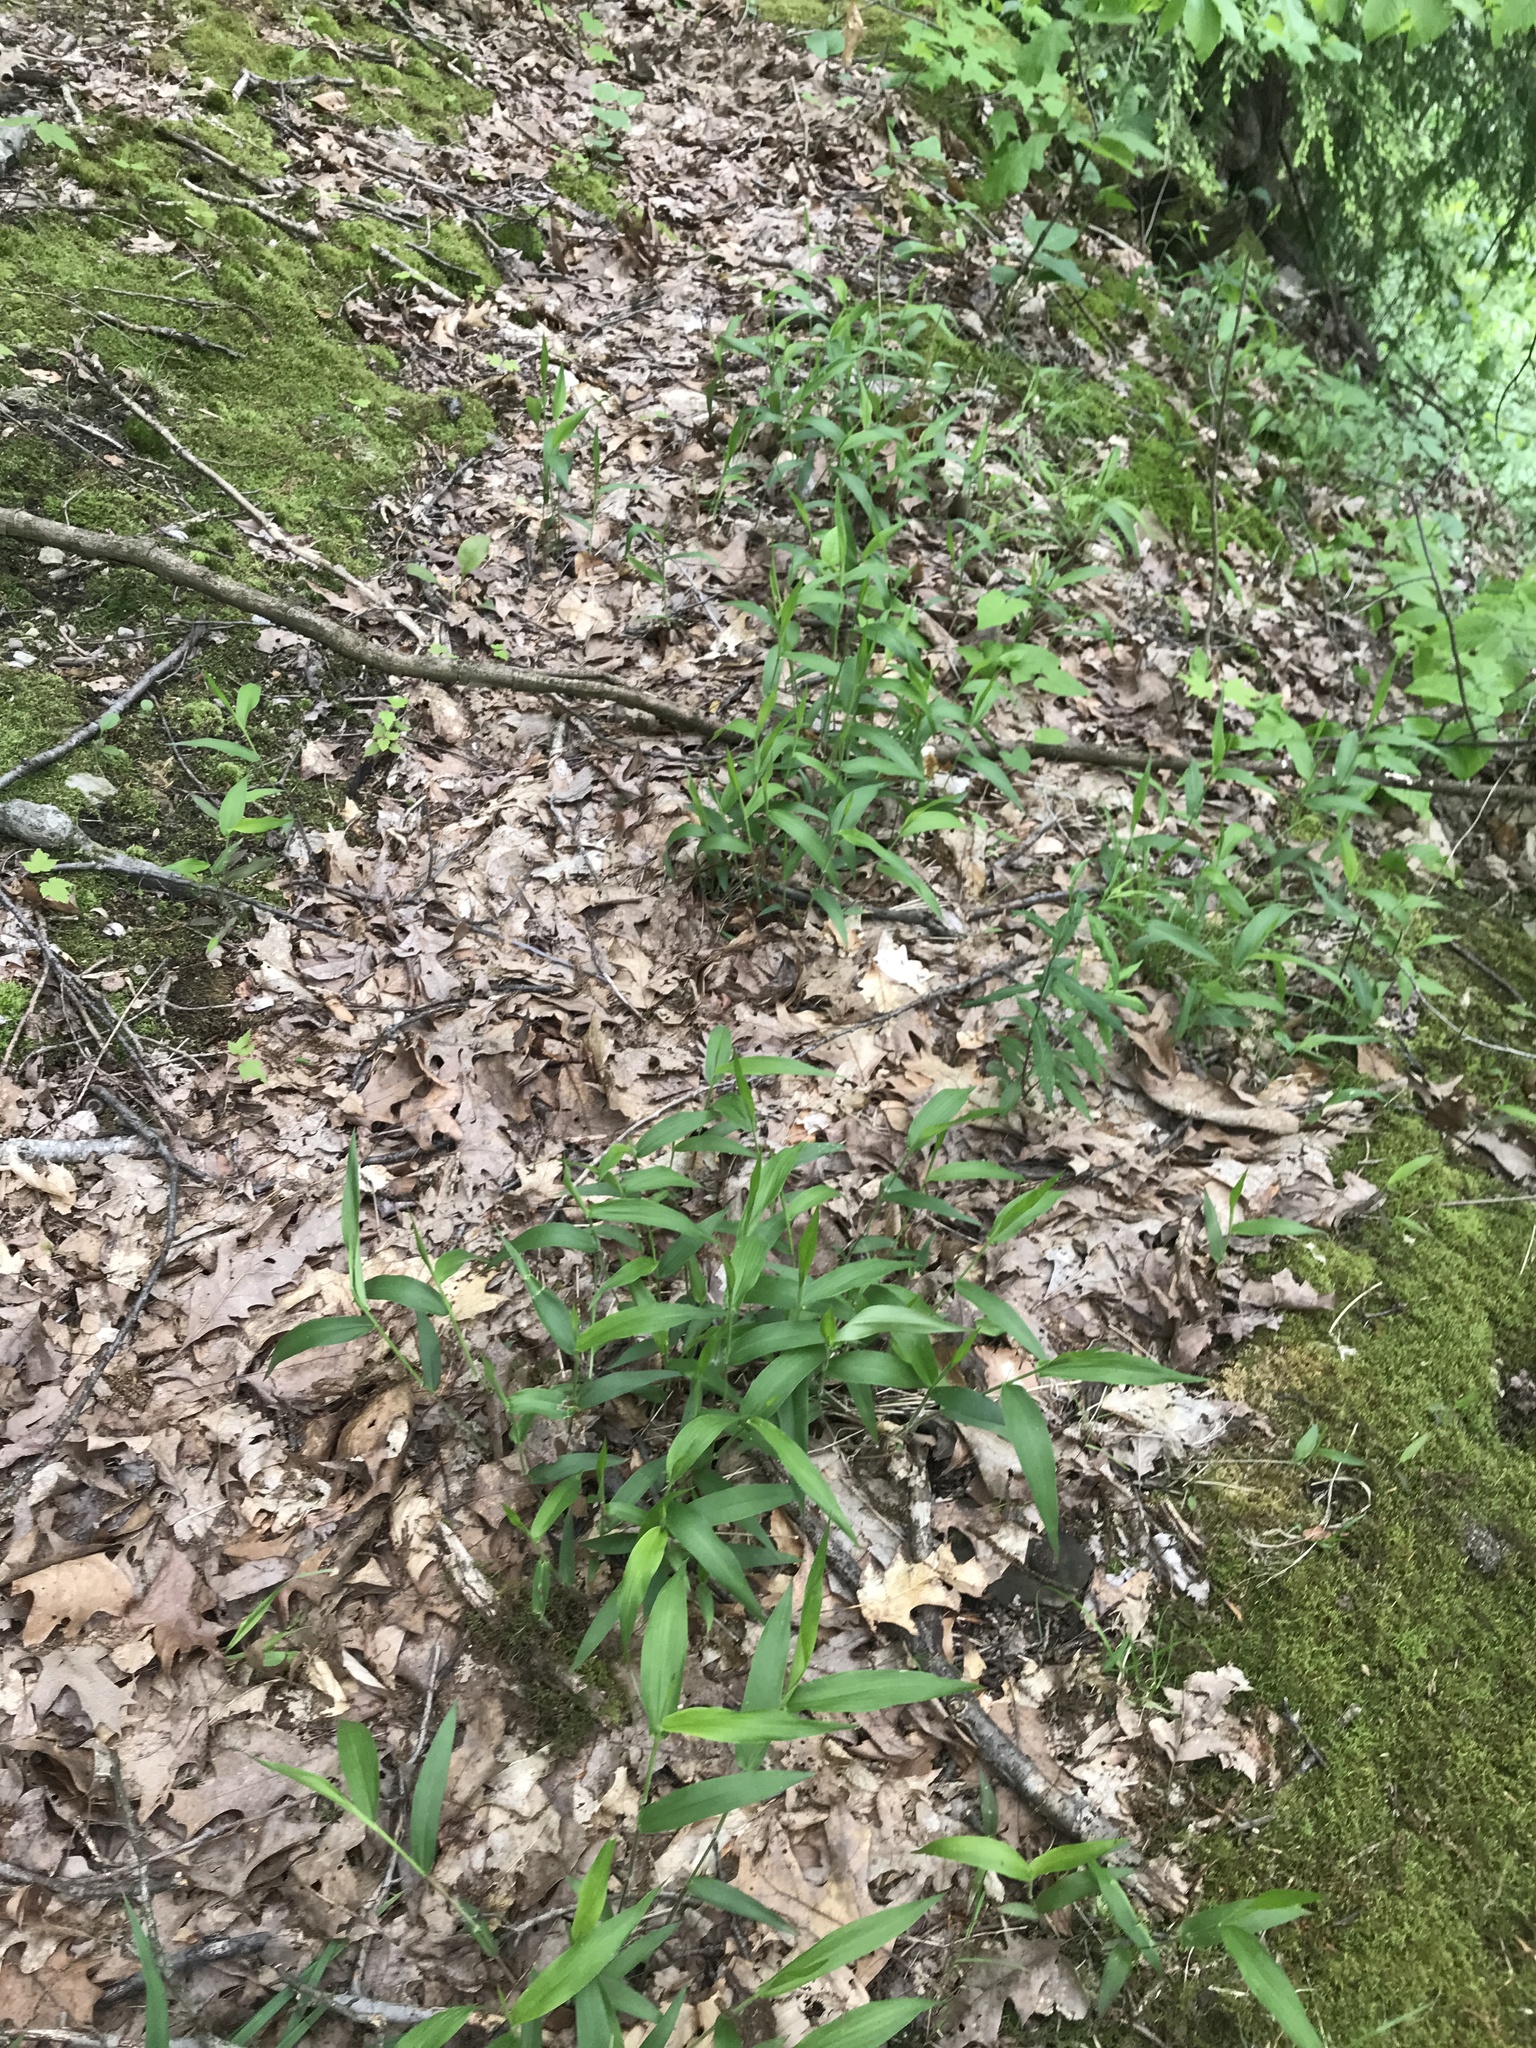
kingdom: Plantae
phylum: Tracheophyta
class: Liliopsida
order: Poales
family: Poaceae
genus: Dichanthelium
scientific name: Dichanthelium boscii
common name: Bosc's panic grass
